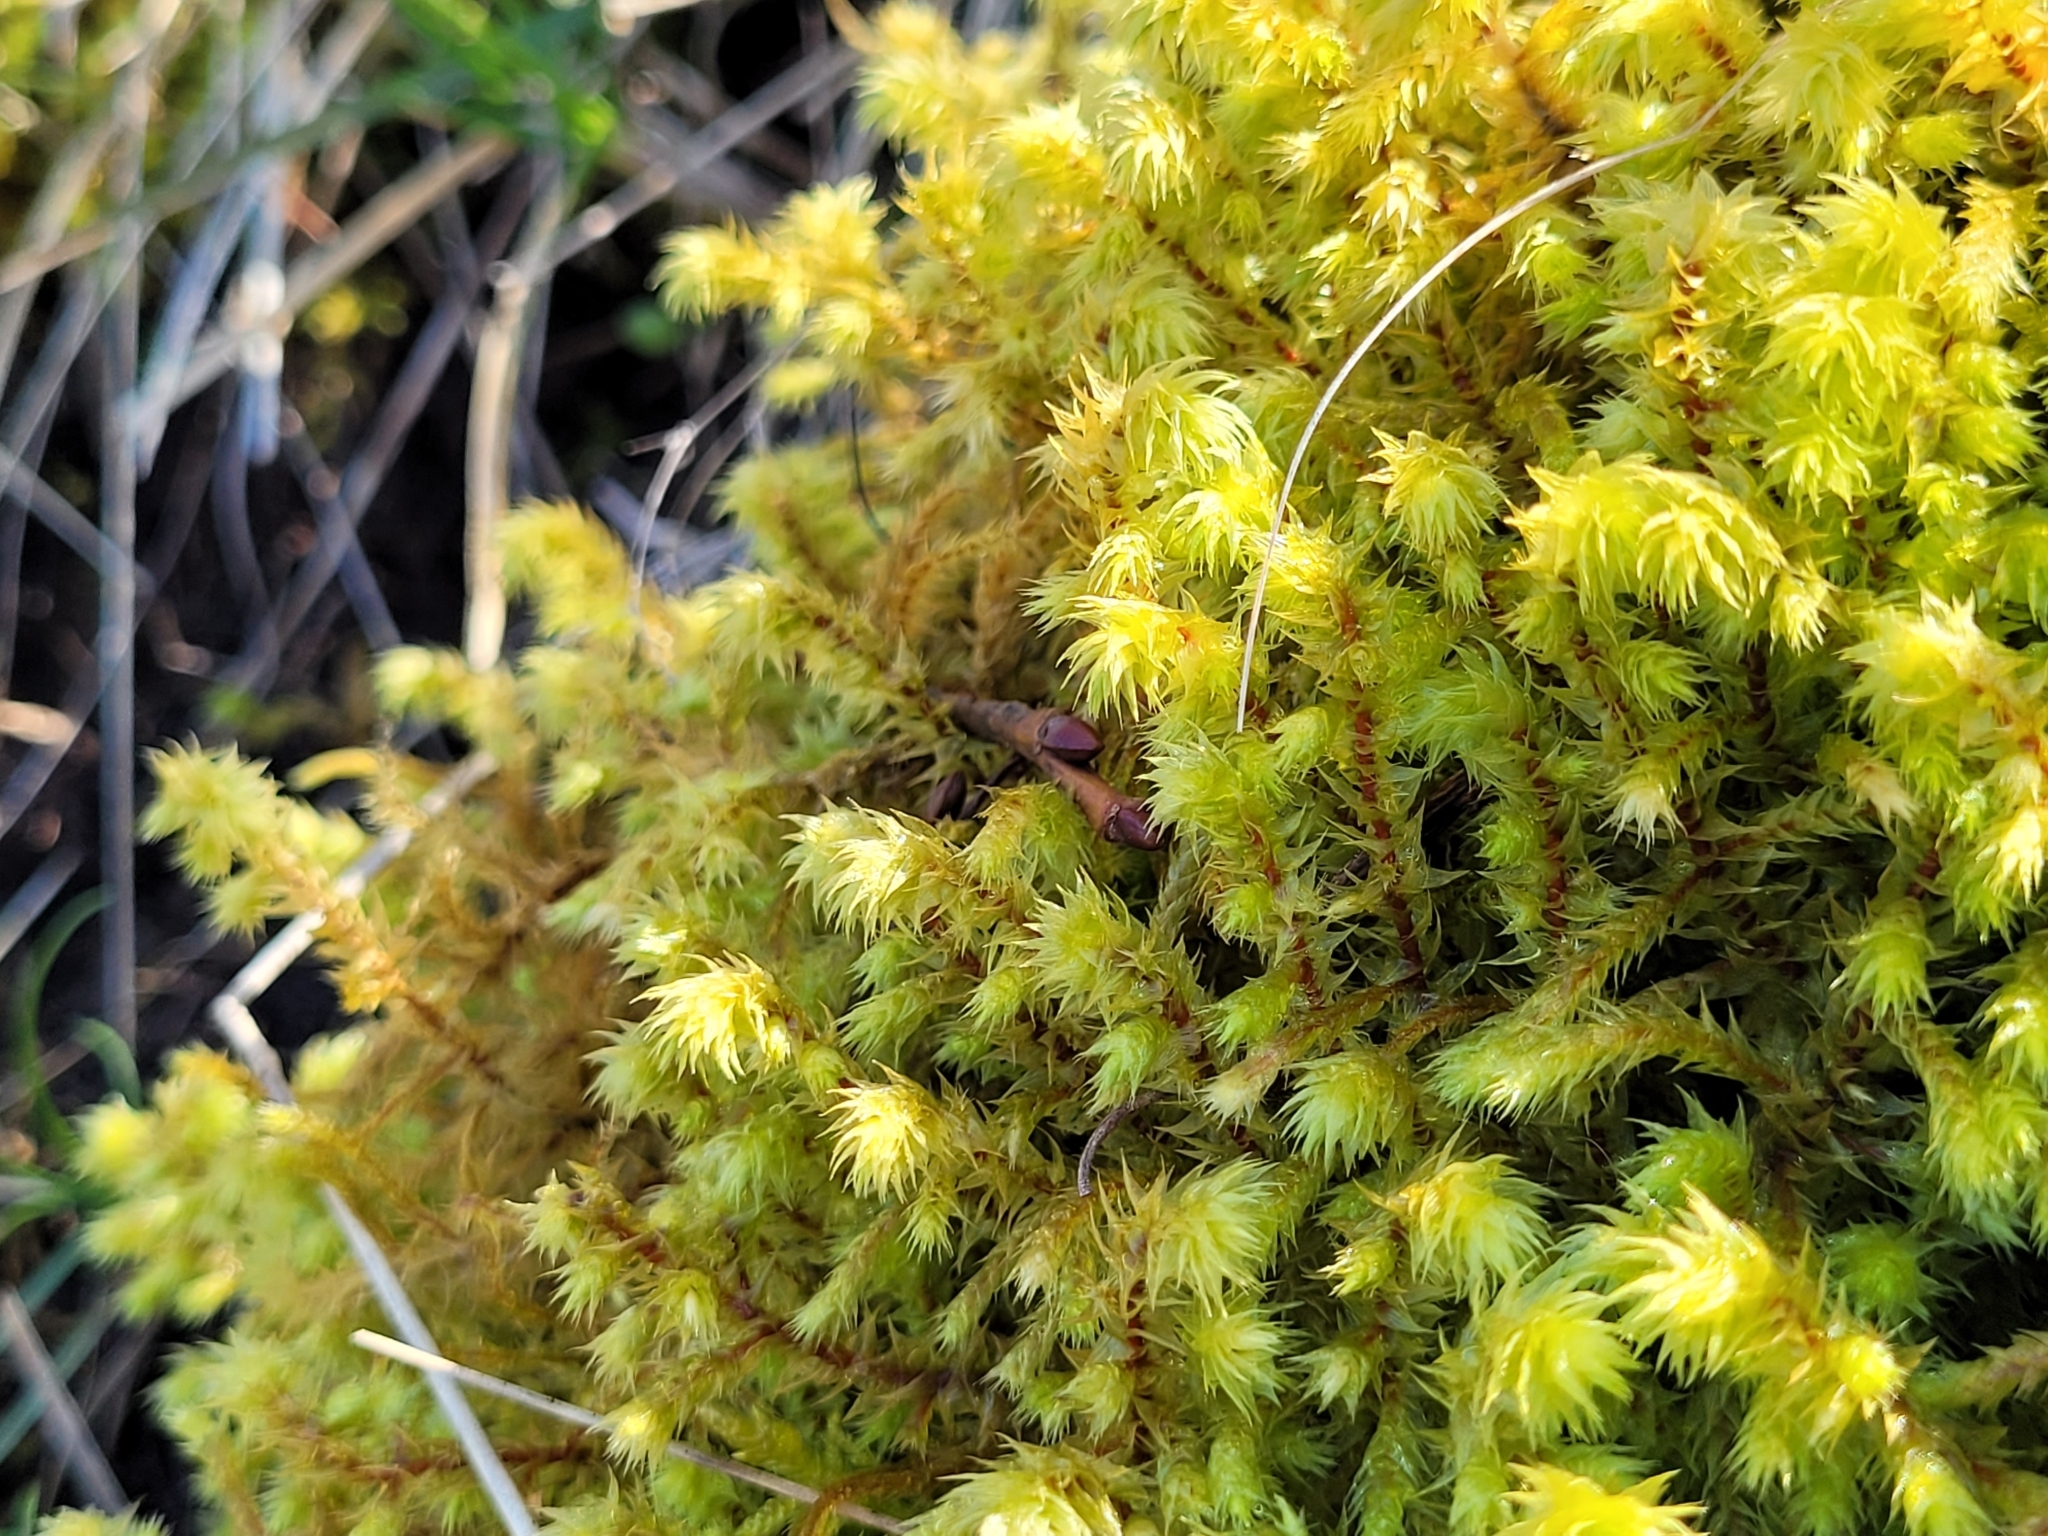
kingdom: Plantae
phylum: Bryophyta
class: Bryopsida
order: Hypnales
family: Hylocomiaceae
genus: Hylocomiadelphus
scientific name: Hylocomiadelphus triquetrus
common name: Rough goose neck moss
